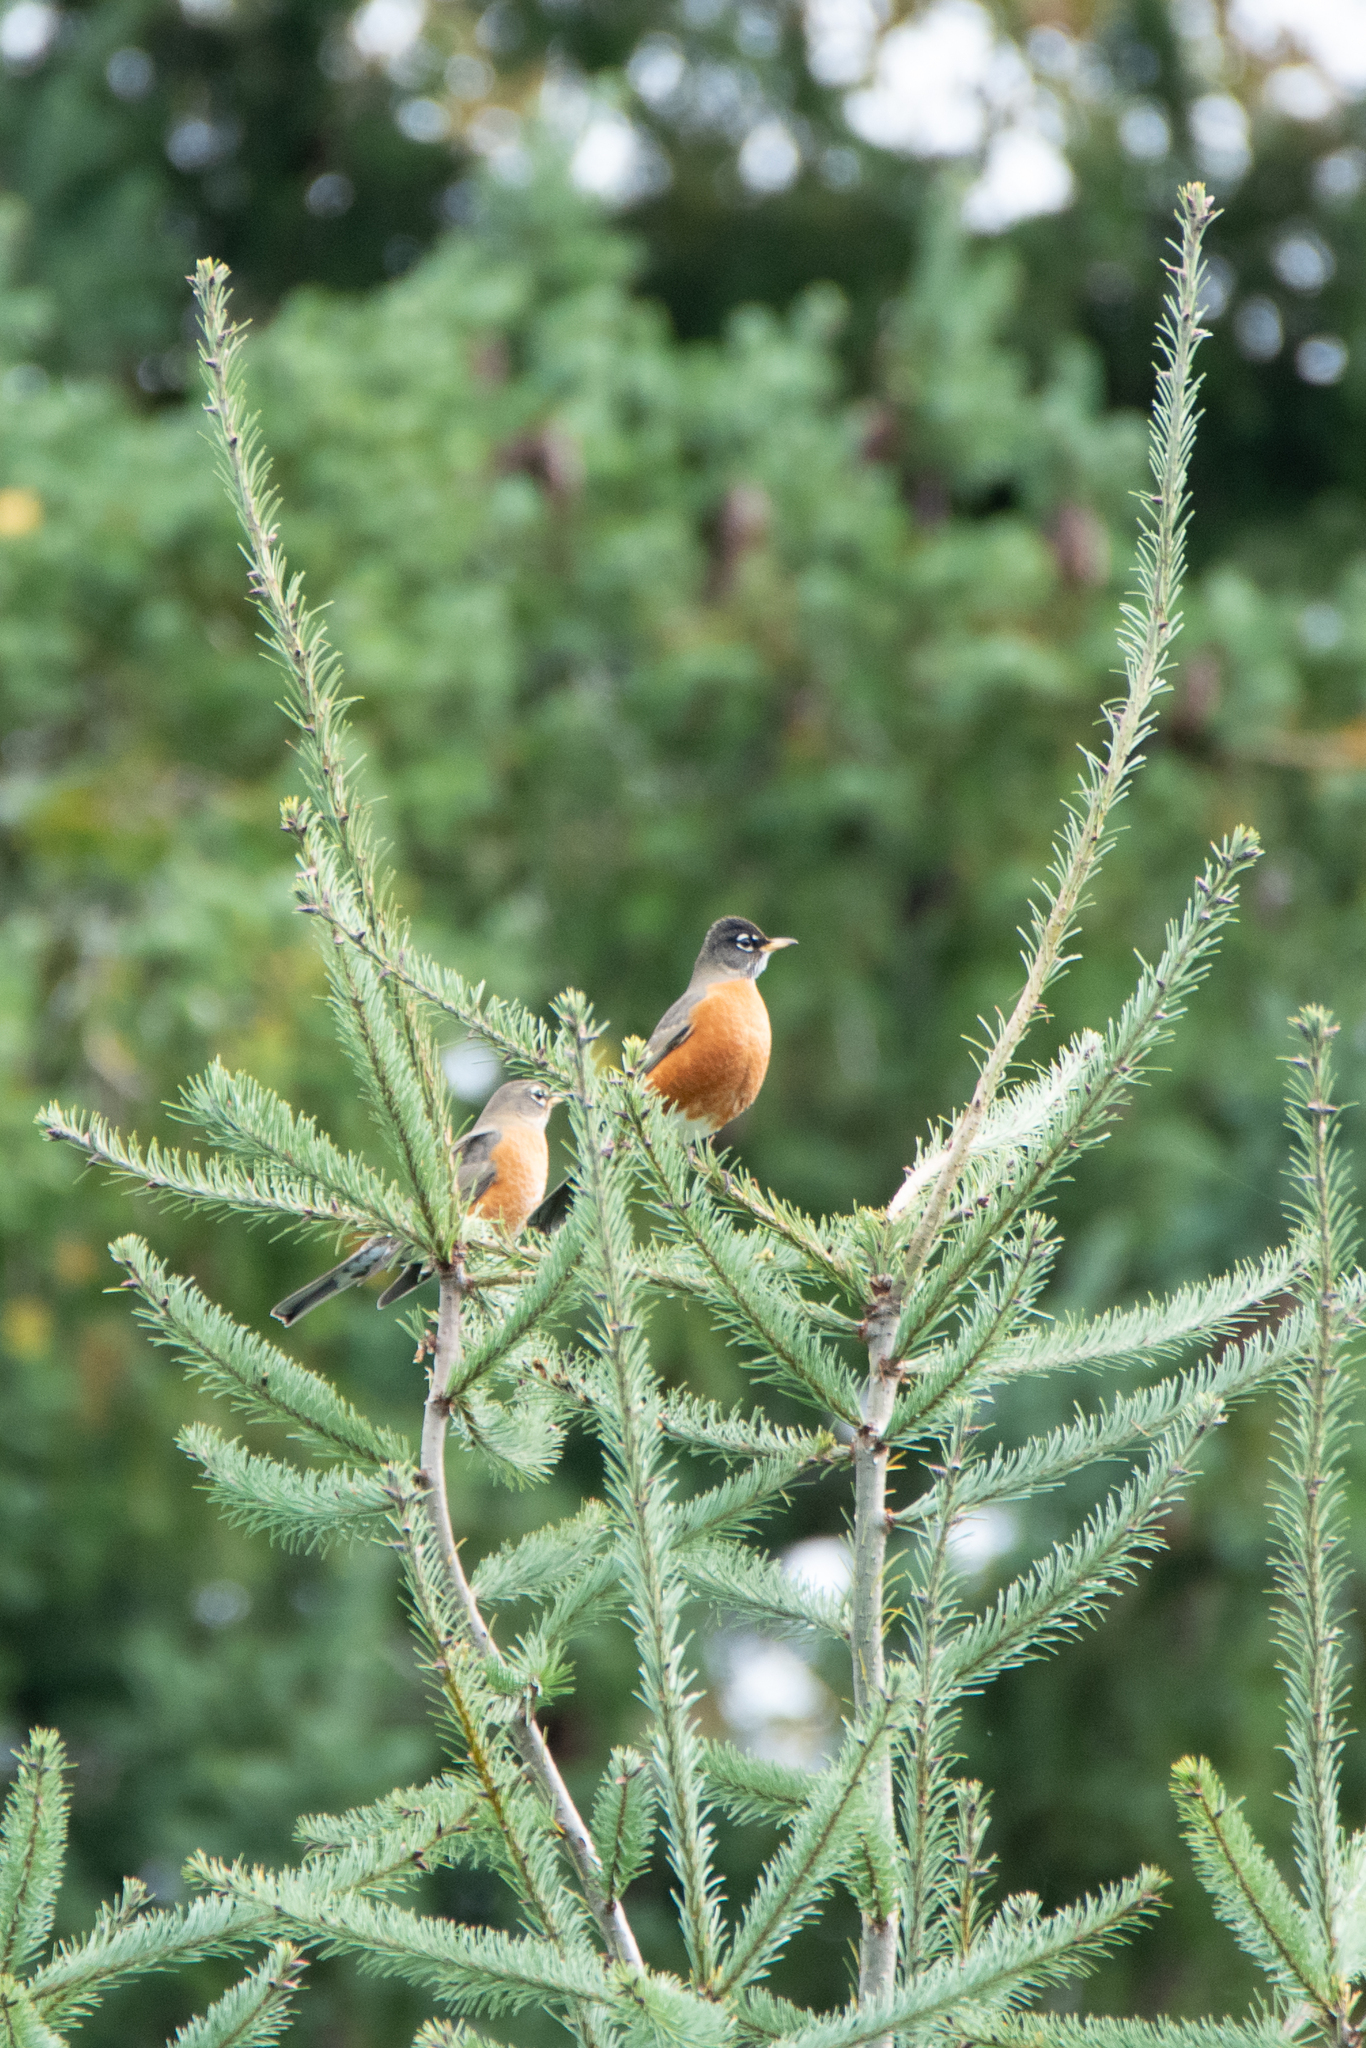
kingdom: Animalia
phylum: Chordata
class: Aves
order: Passeriformes
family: Turdidae
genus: Turdus
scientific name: Turdus migratorius
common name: American robin
